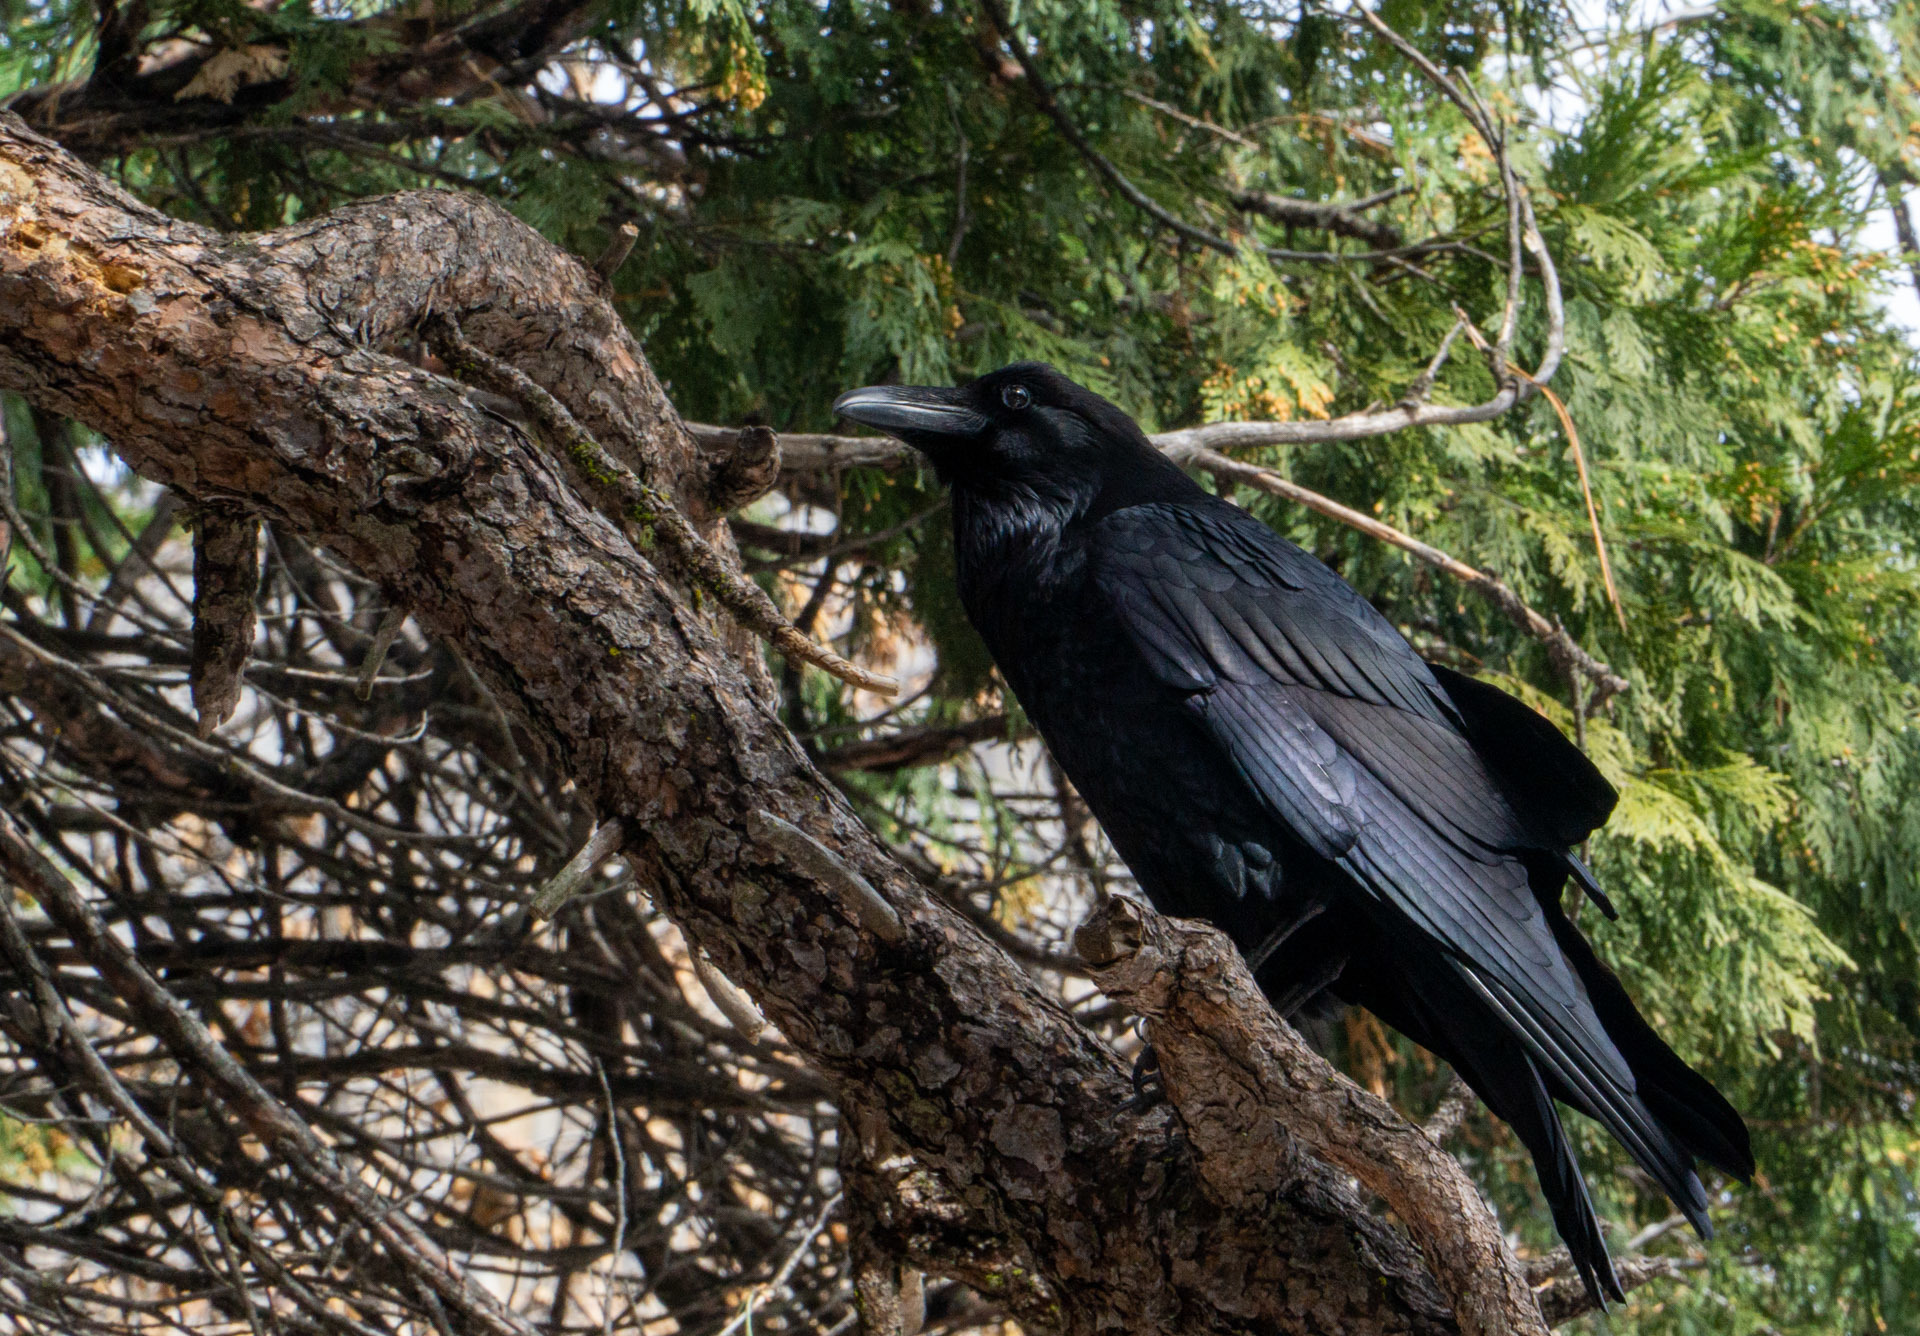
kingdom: Animalia
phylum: Chordata
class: Aves
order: Passeriformes
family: Corvidae
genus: Corvus
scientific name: Corvus corax
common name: Common raven
